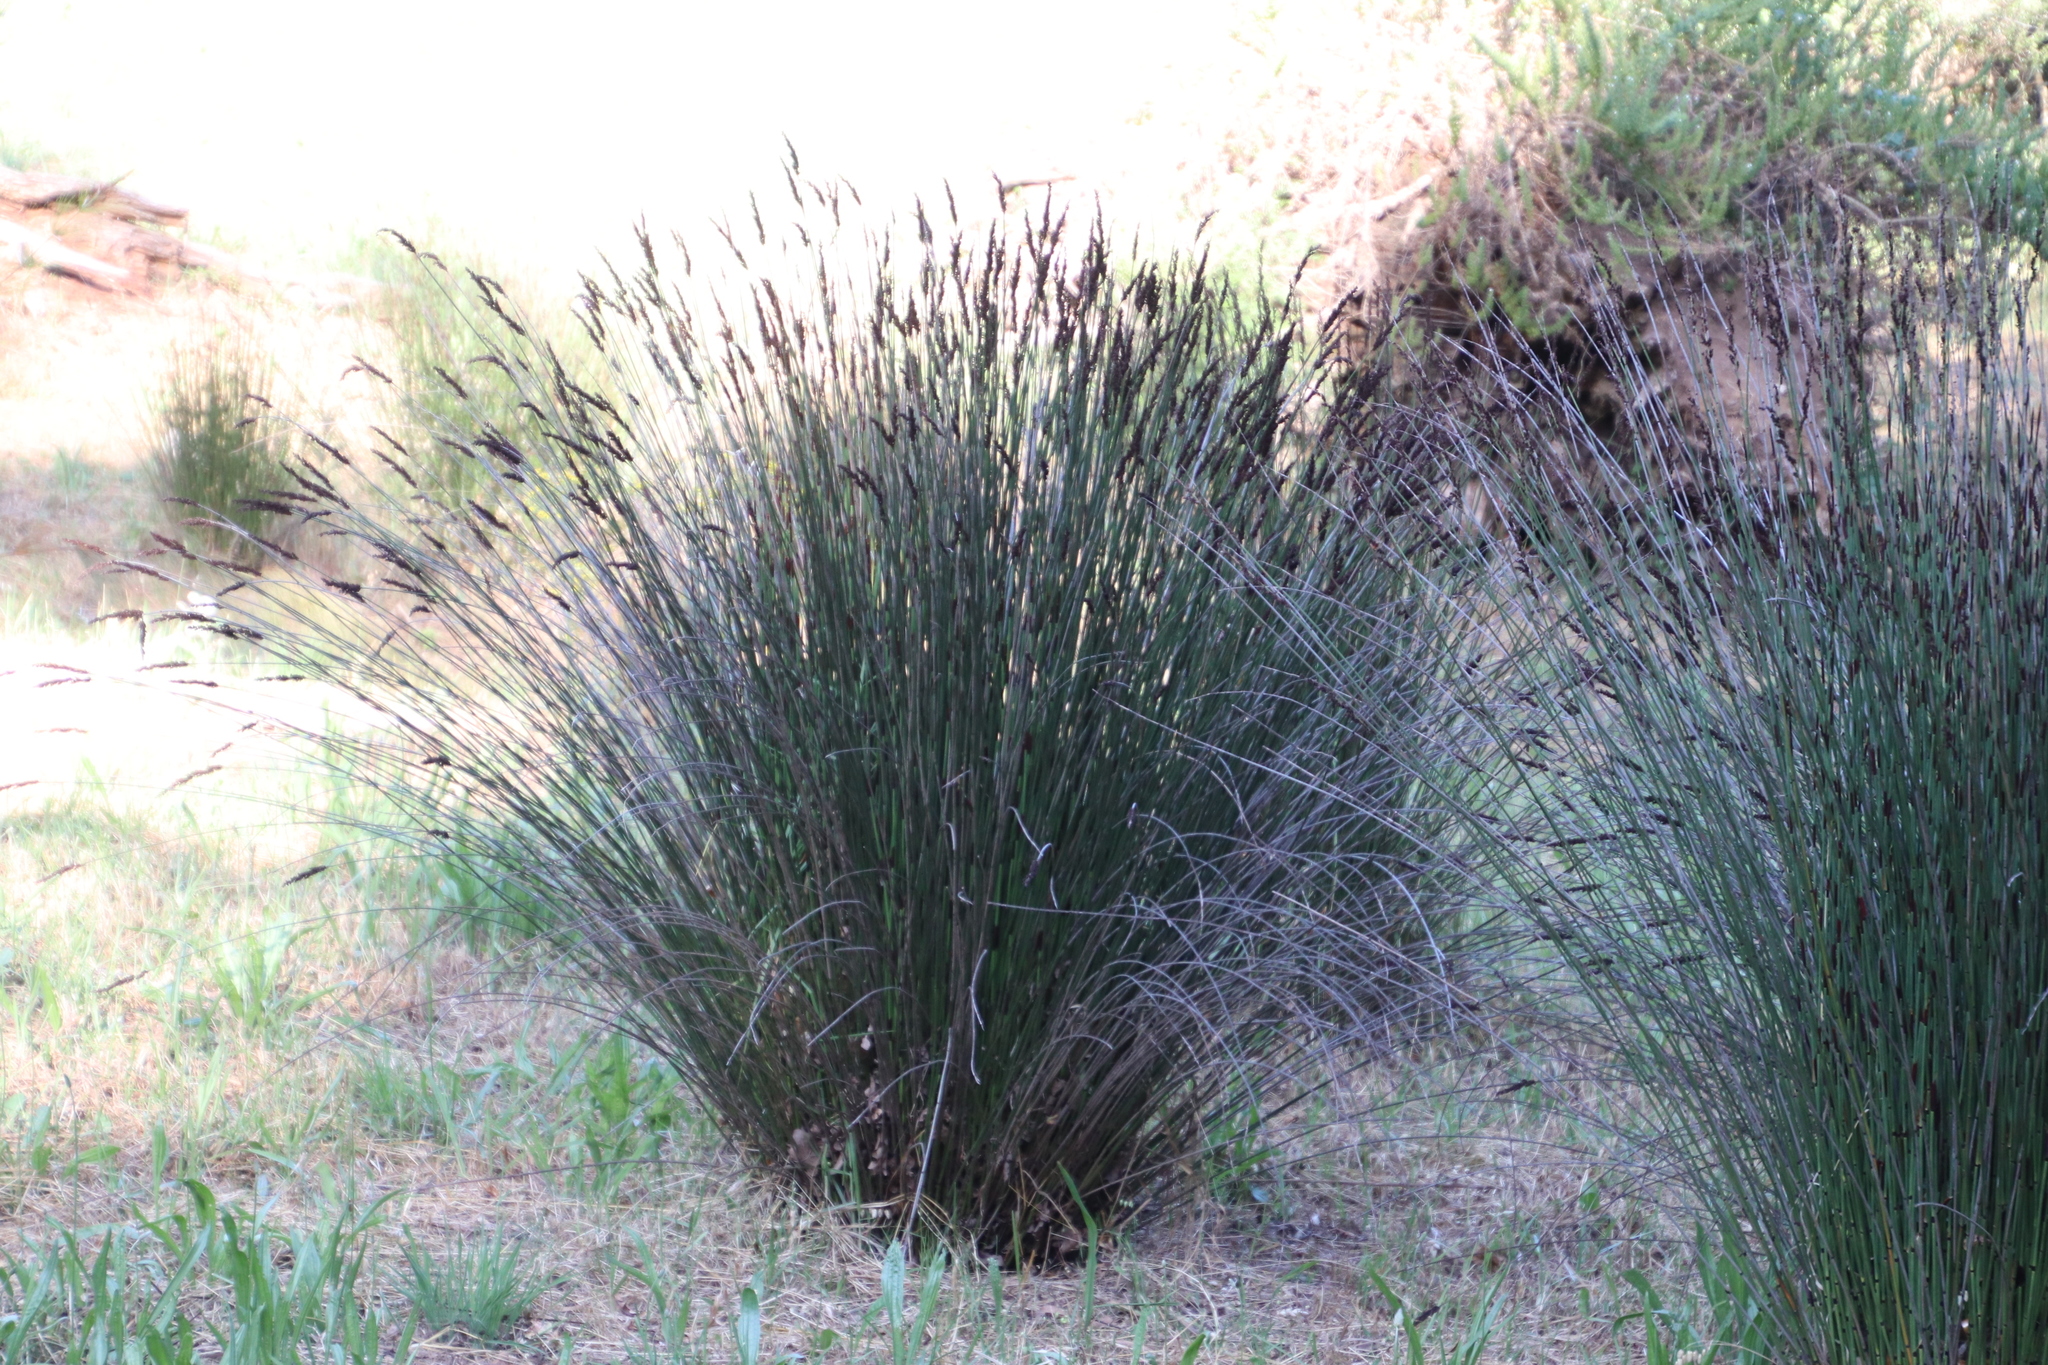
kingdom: Plantae
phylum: Tracheophyta
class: Liliopsida
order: Poales
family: Restionaceae
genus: Elegia
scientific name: Elegia tectorum
